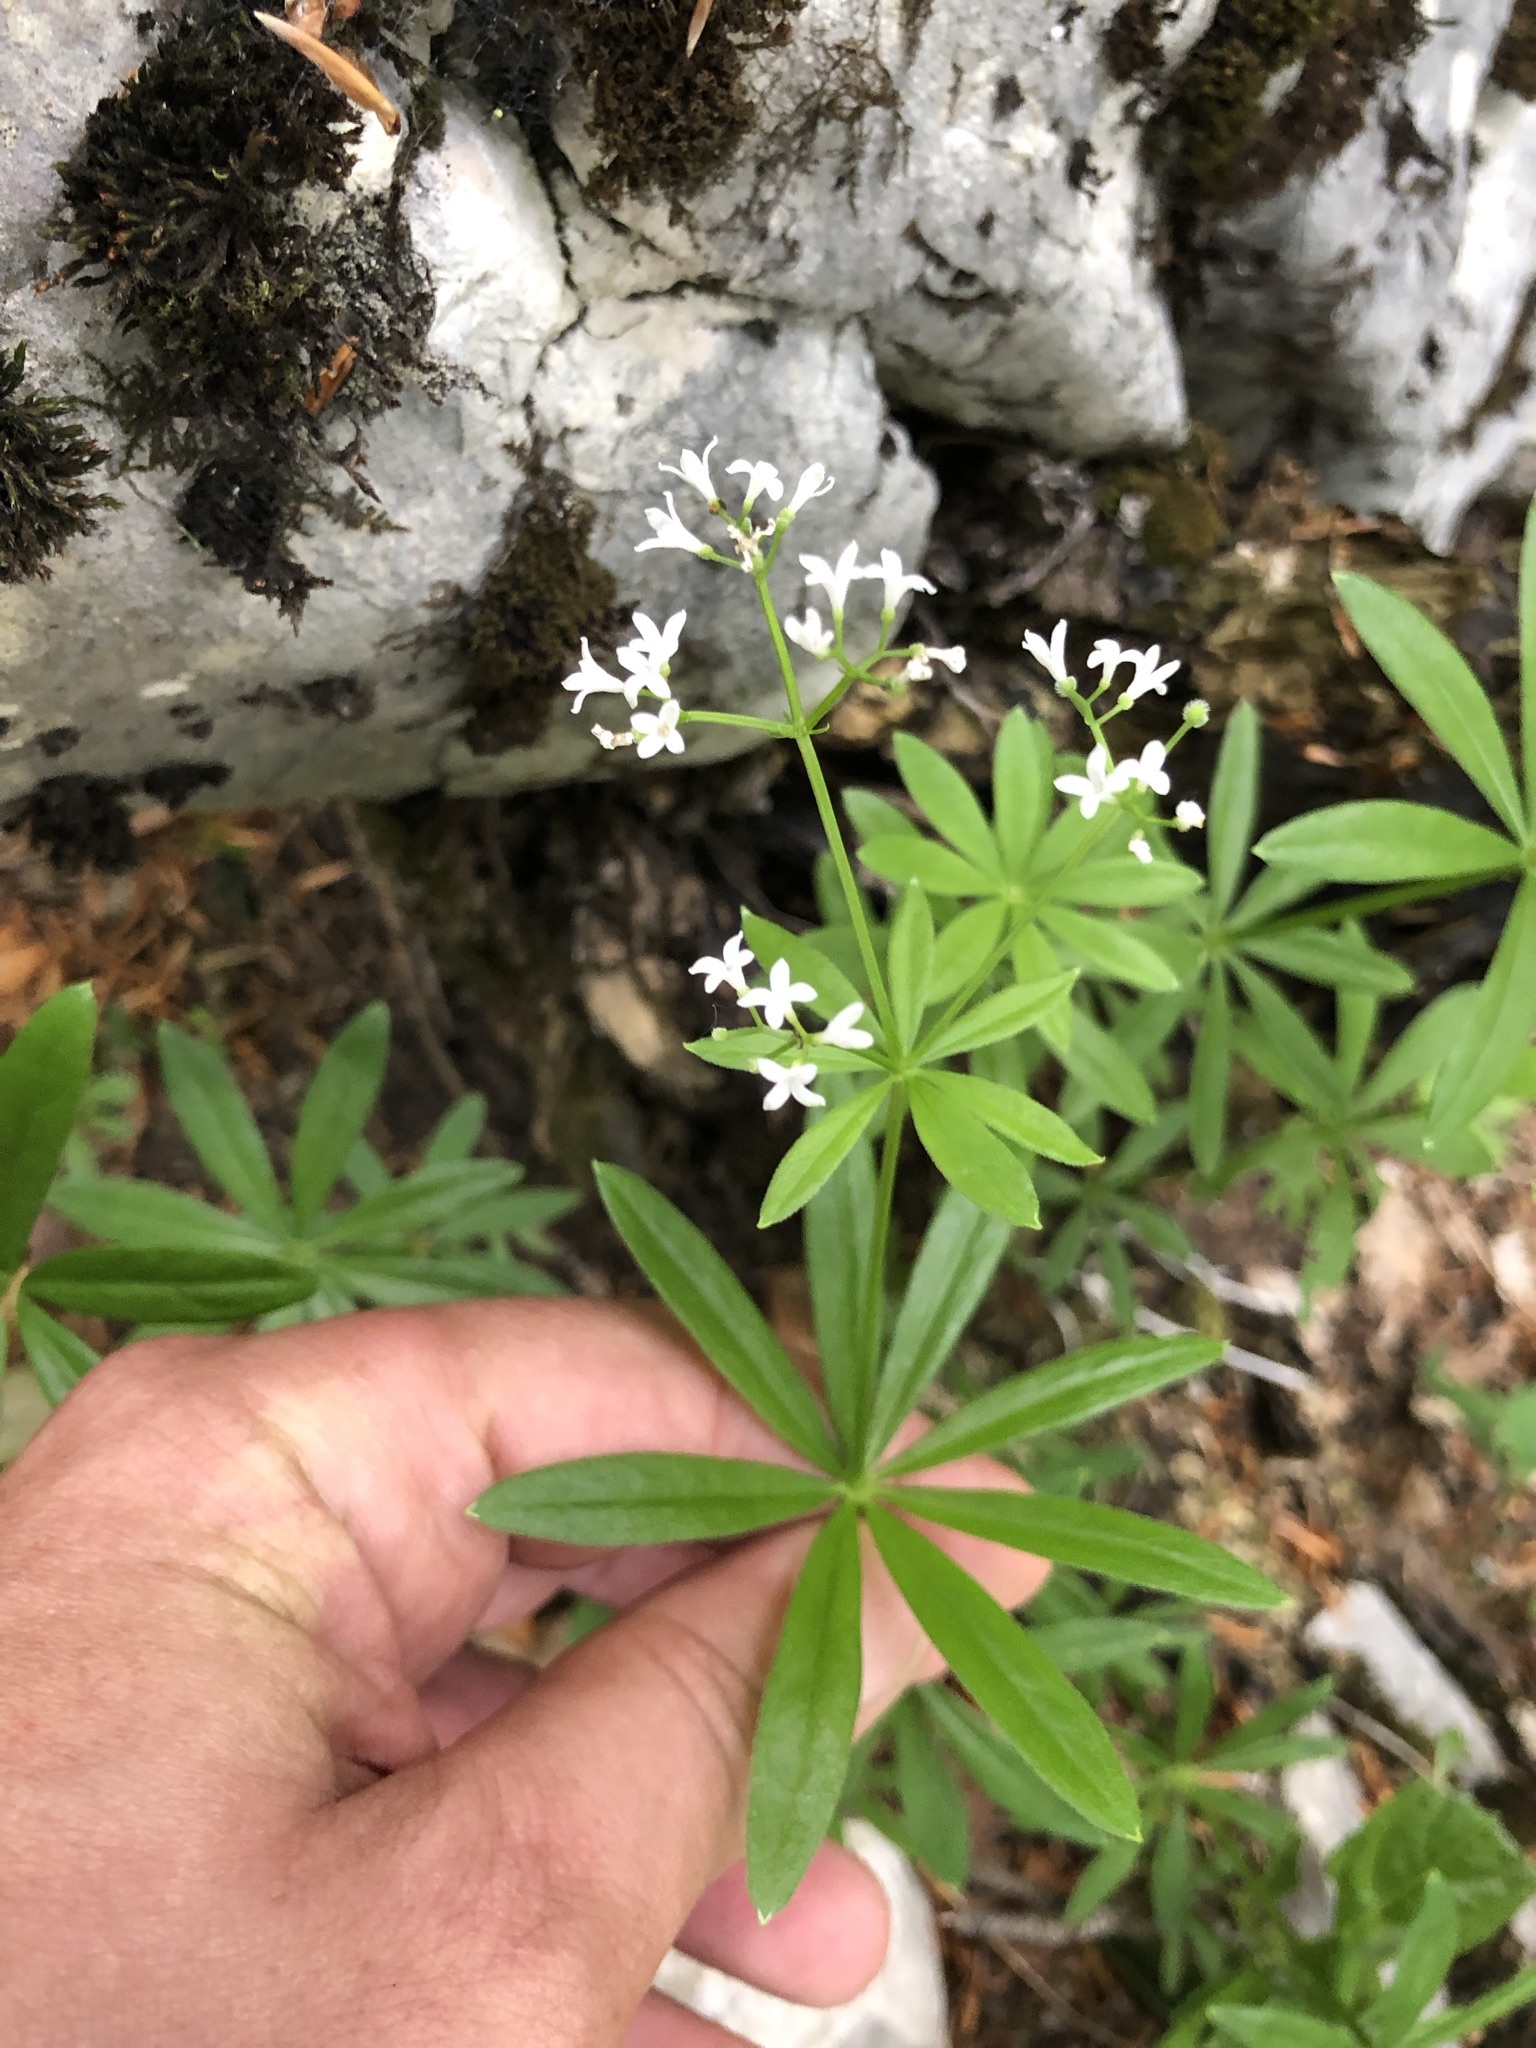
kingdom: Plantae
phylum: Tracheophyta
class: Magnoliopsida
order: Gentianales
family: Rubiaceae
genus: Galium
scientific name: Galium odoratum
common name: Sweet woodruff
